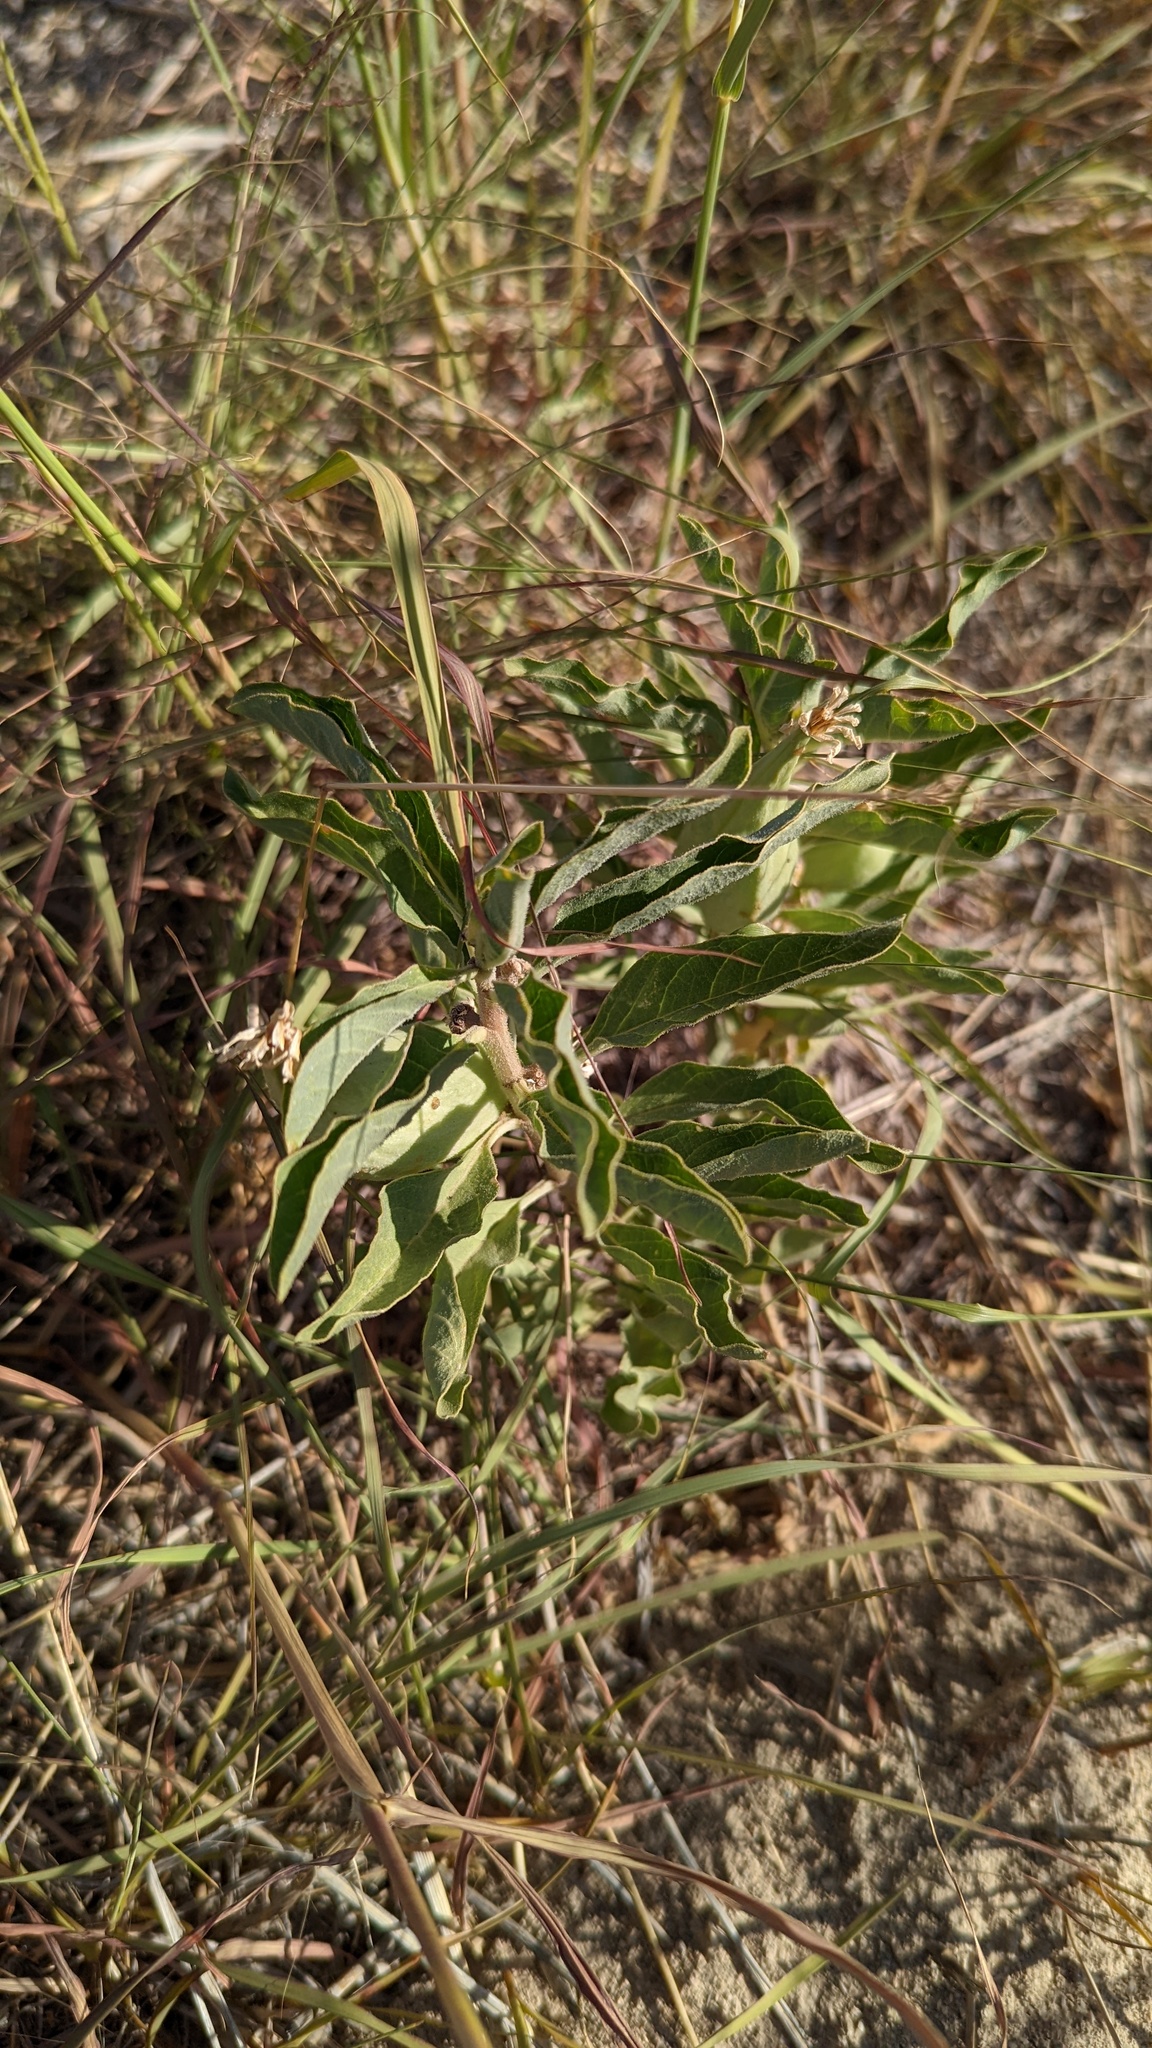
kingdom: Plantae
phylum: Tracheophyta
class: Magnoliopsida
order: Gentianales
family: Apocynaceae
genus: Asclepias
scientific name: Asclepias oenotheroides
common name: Zizotes milkweed
